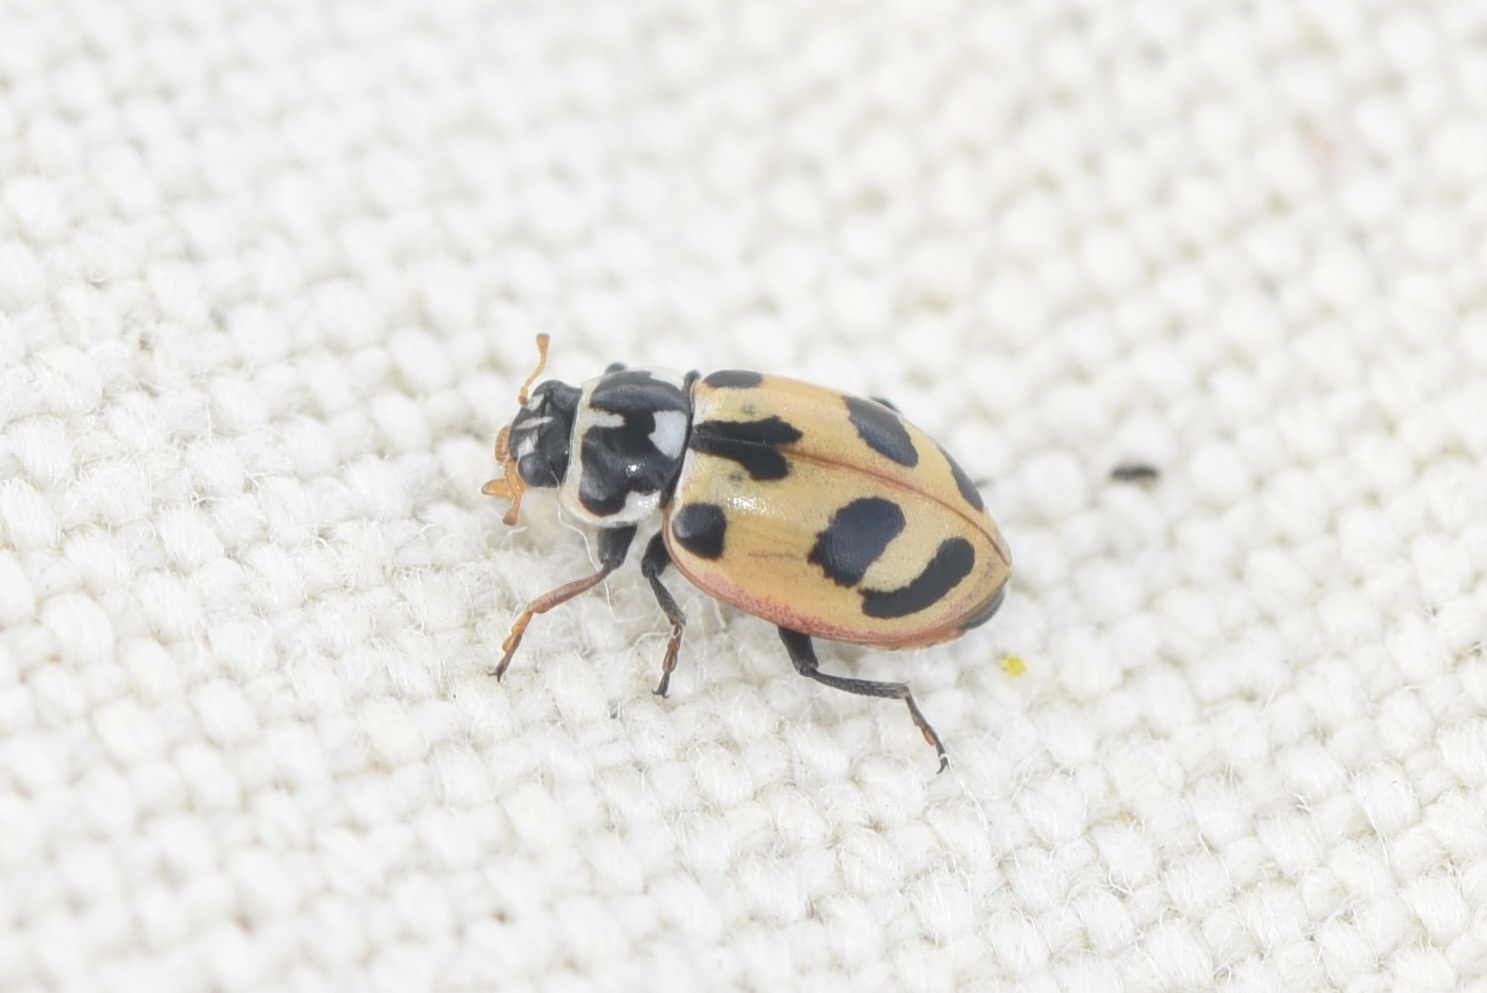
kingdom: Animalia
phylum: Arthropoda
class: Insecta
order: Coleoptera
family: Coccinellidae
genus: Hippodamia
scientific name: Hippodamia parenthesis
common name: Parenthesis lady beetle
